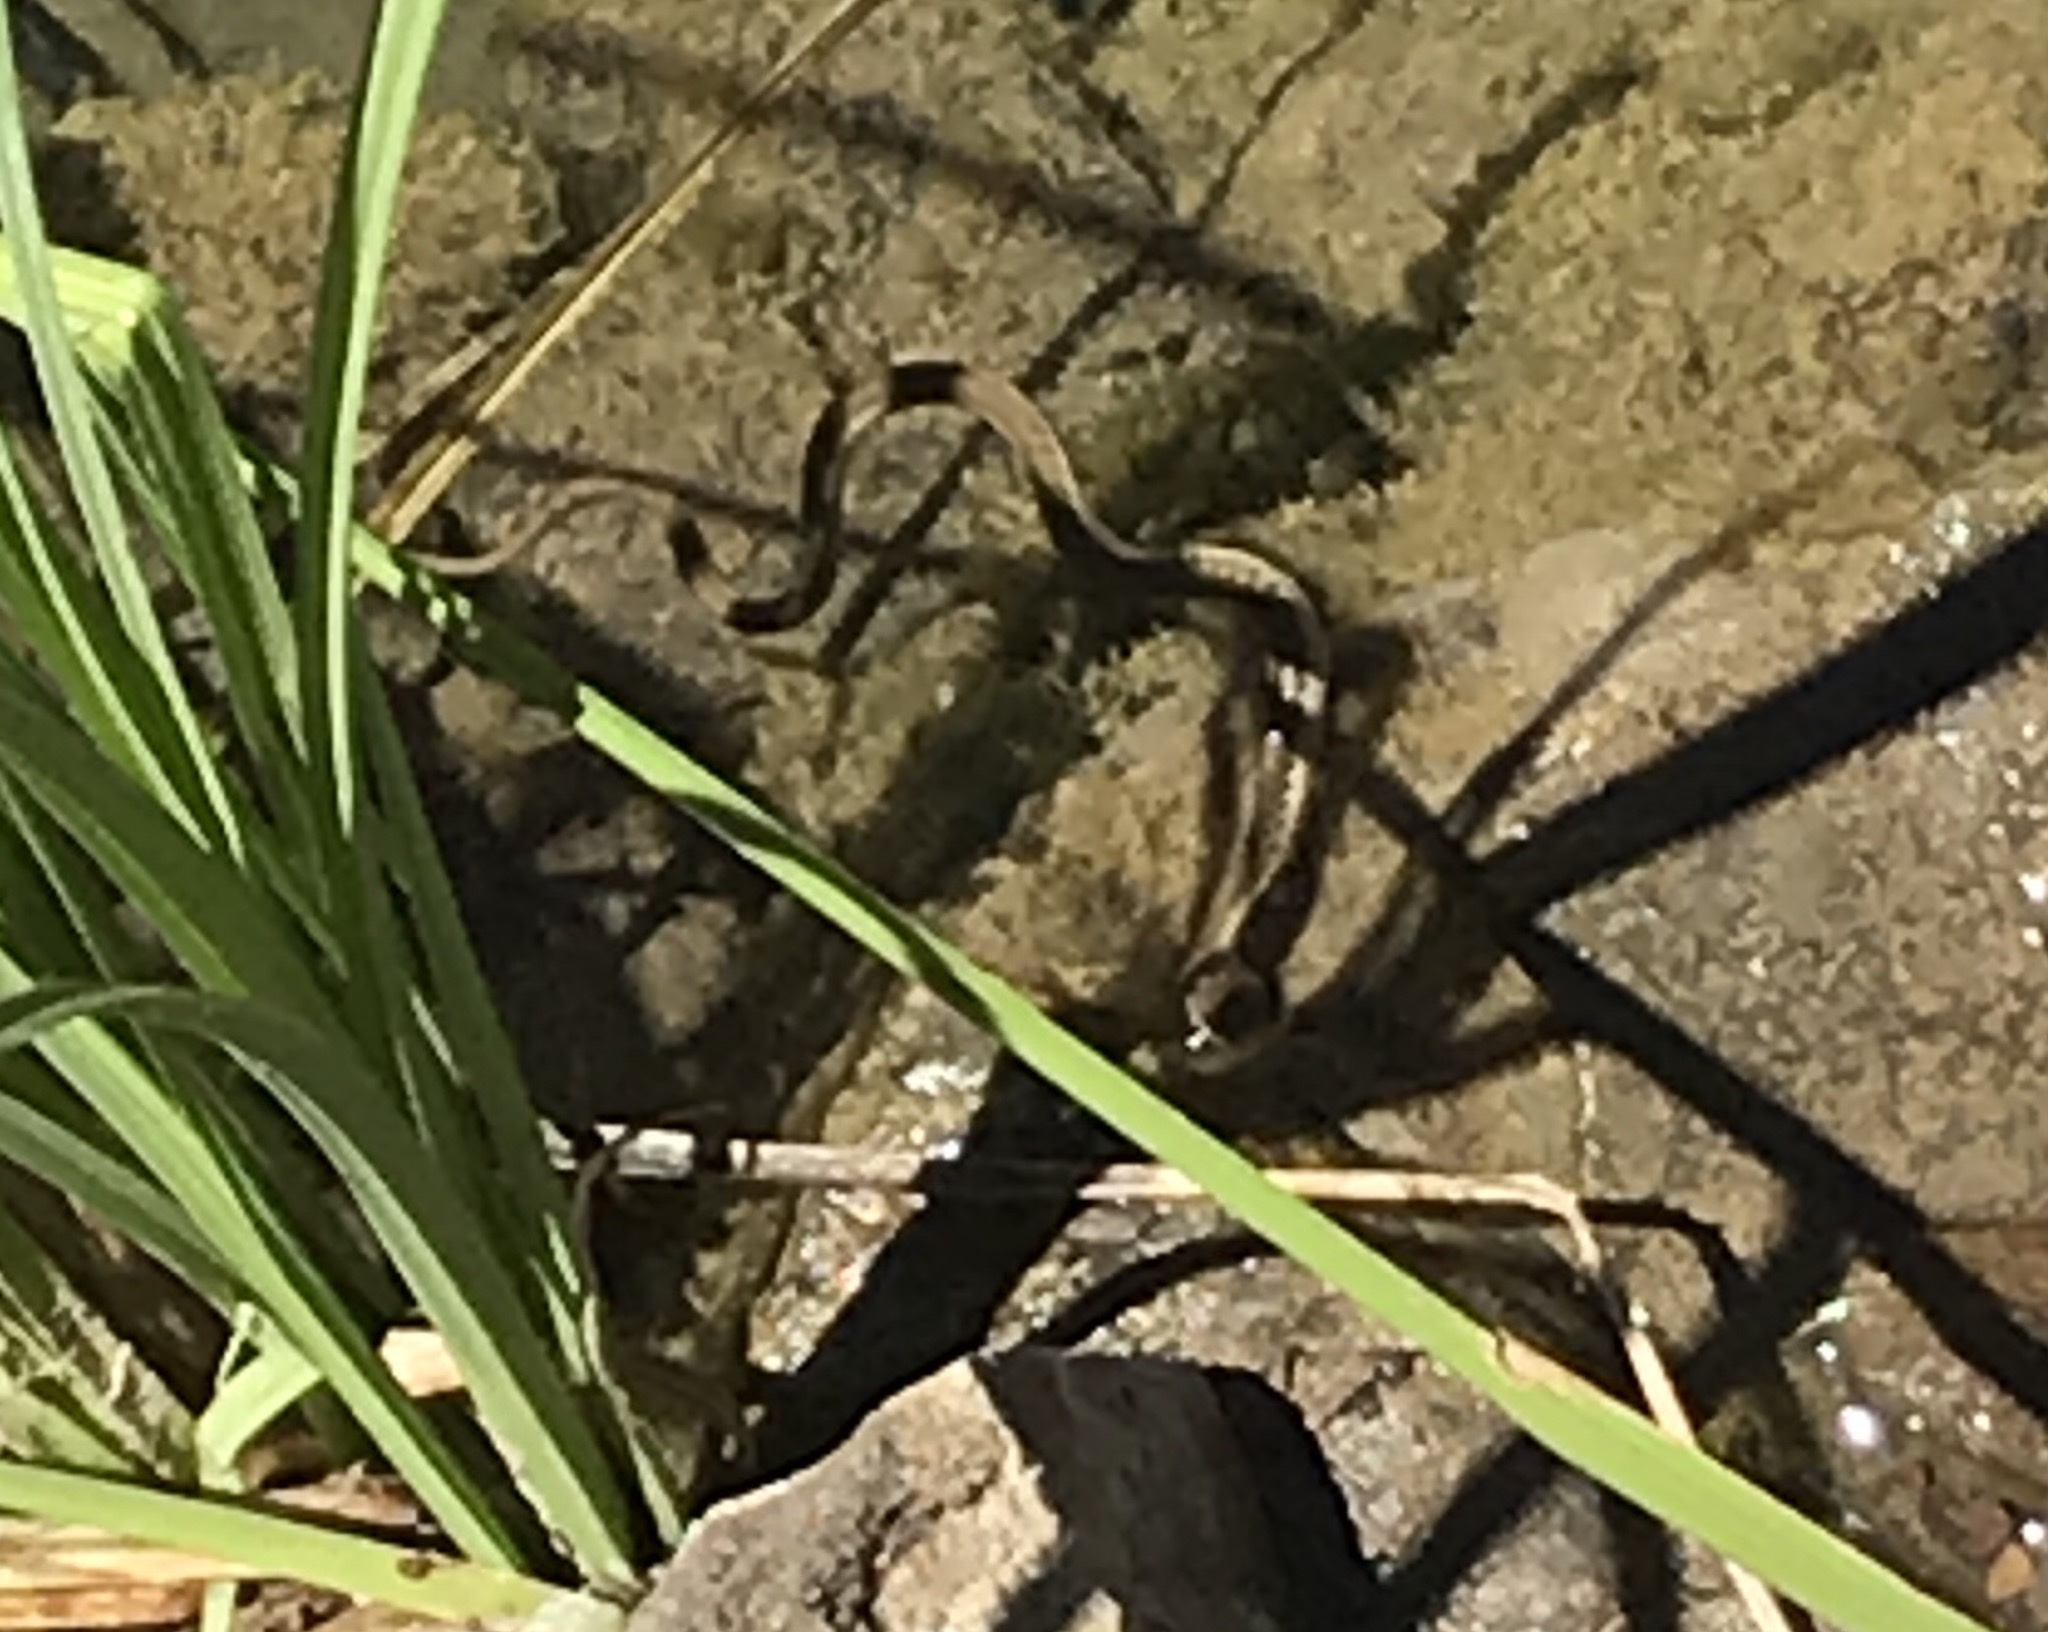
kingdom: Animalia
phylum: Chordata
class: Squamata
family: Colubridae
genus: Thamnophis
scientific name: Thamnophis hammondii
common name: Two-striped garter snake
